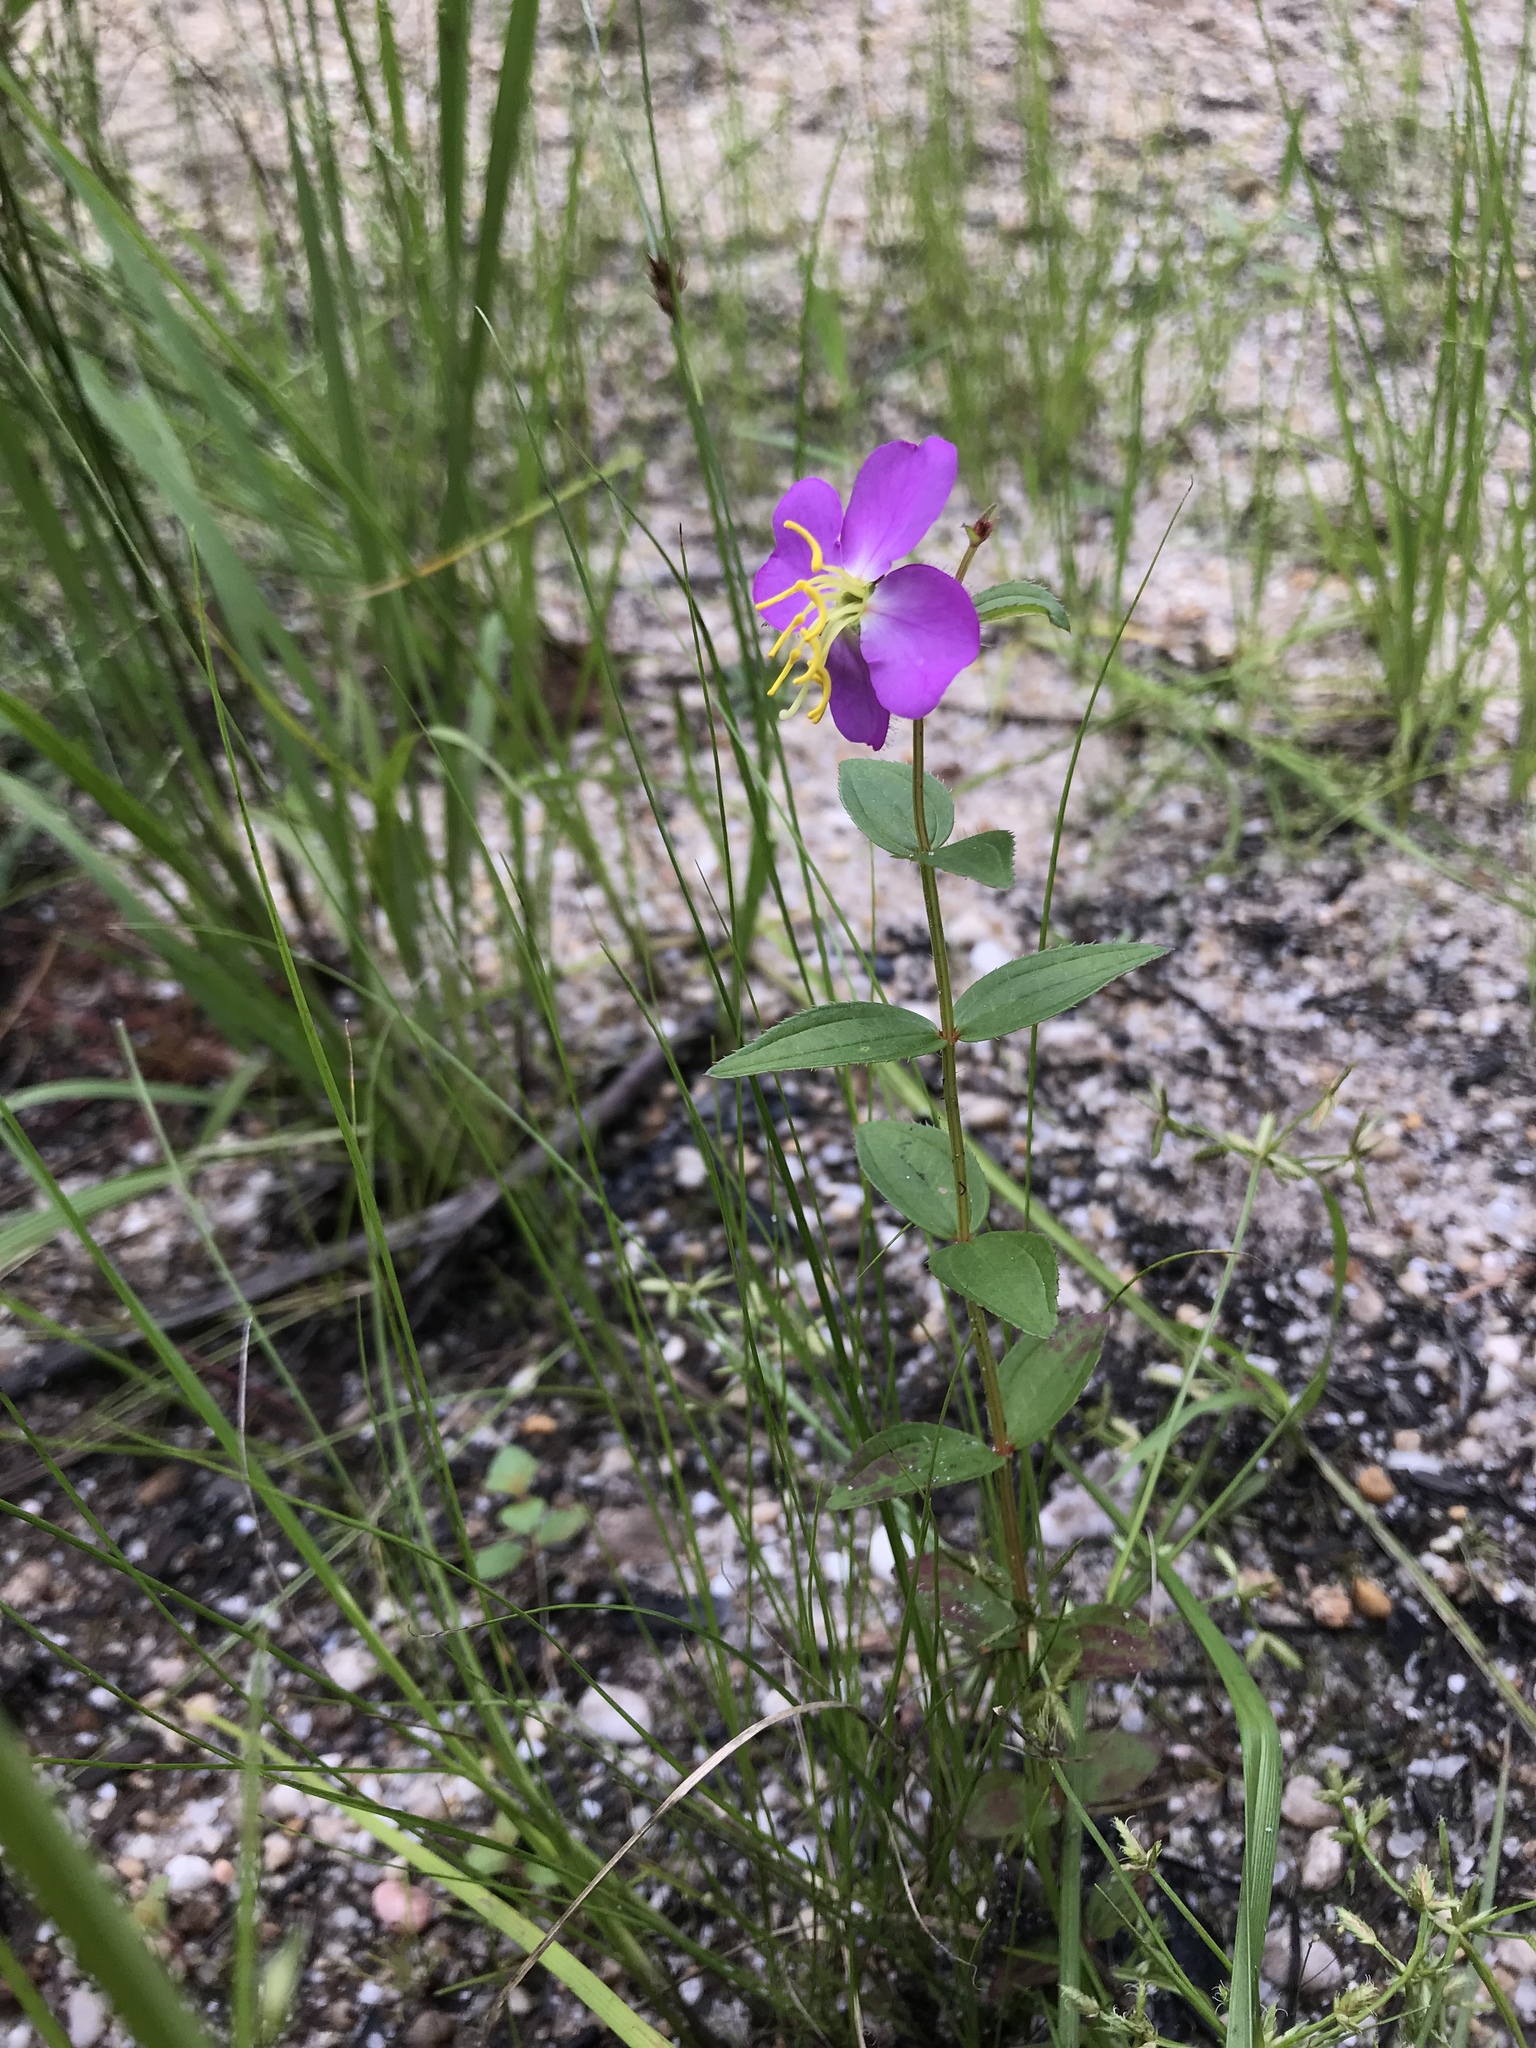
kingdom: Plantae
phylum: Tracheophyta
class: Magnoliopsida
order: Myrtales
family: Melastomataceae
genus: Rhexia
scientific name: Rhexia virginica
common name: Common meadow beauty
